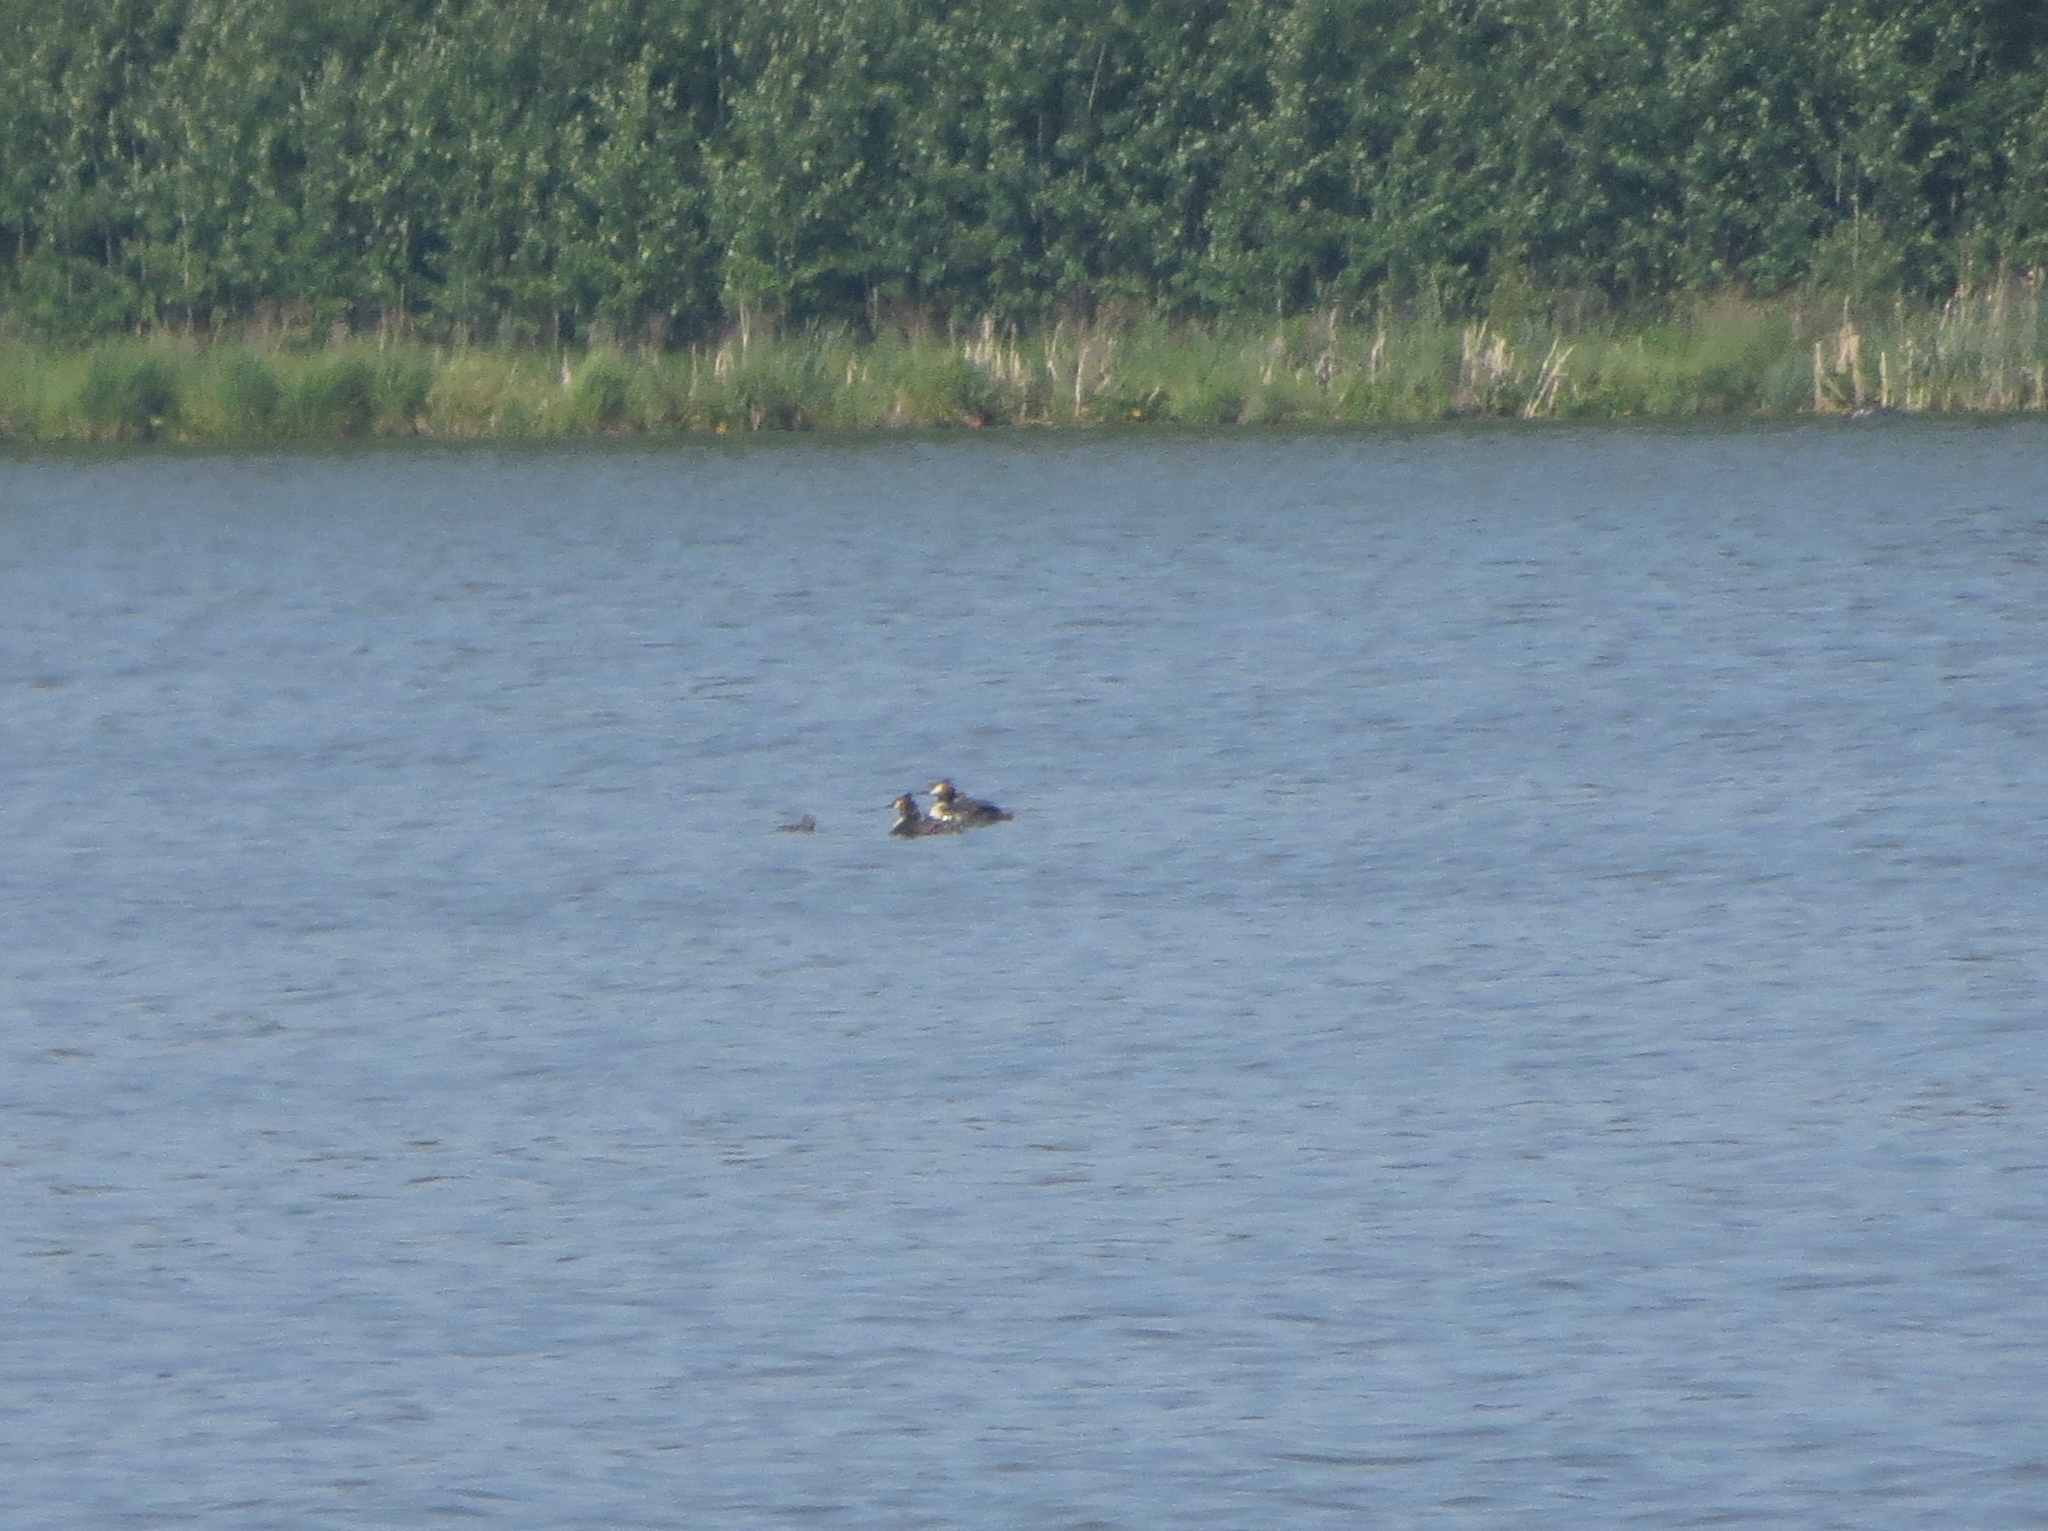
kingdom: Animalia
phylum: Chordata
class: Aves
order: Podicipediformes
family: Podicipedidae
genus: Podiceps
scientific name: Podiceps cristatus
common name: Great crested grebe
